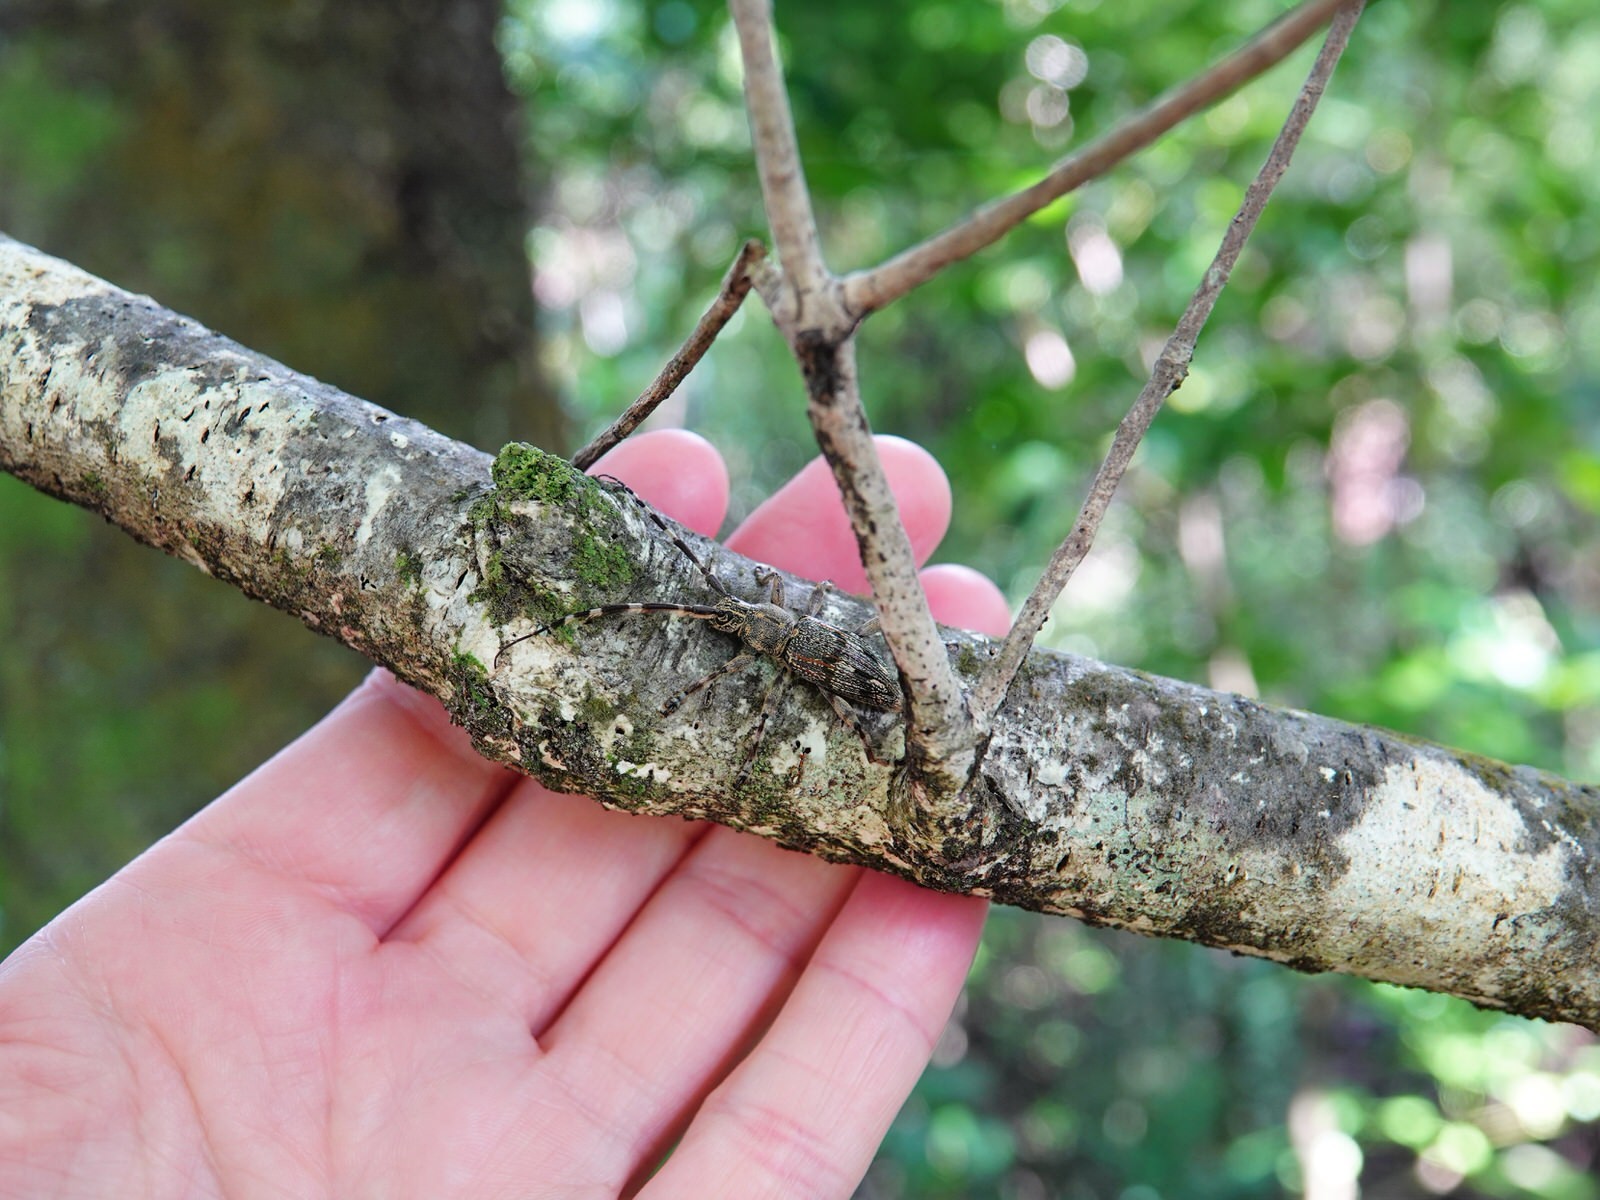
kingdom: Animalia
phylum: Arthropoda
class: Insecta
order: Coleoptera
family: Cerambycidae
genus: Hexatricha
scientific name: Hexatricha pulverulenta
